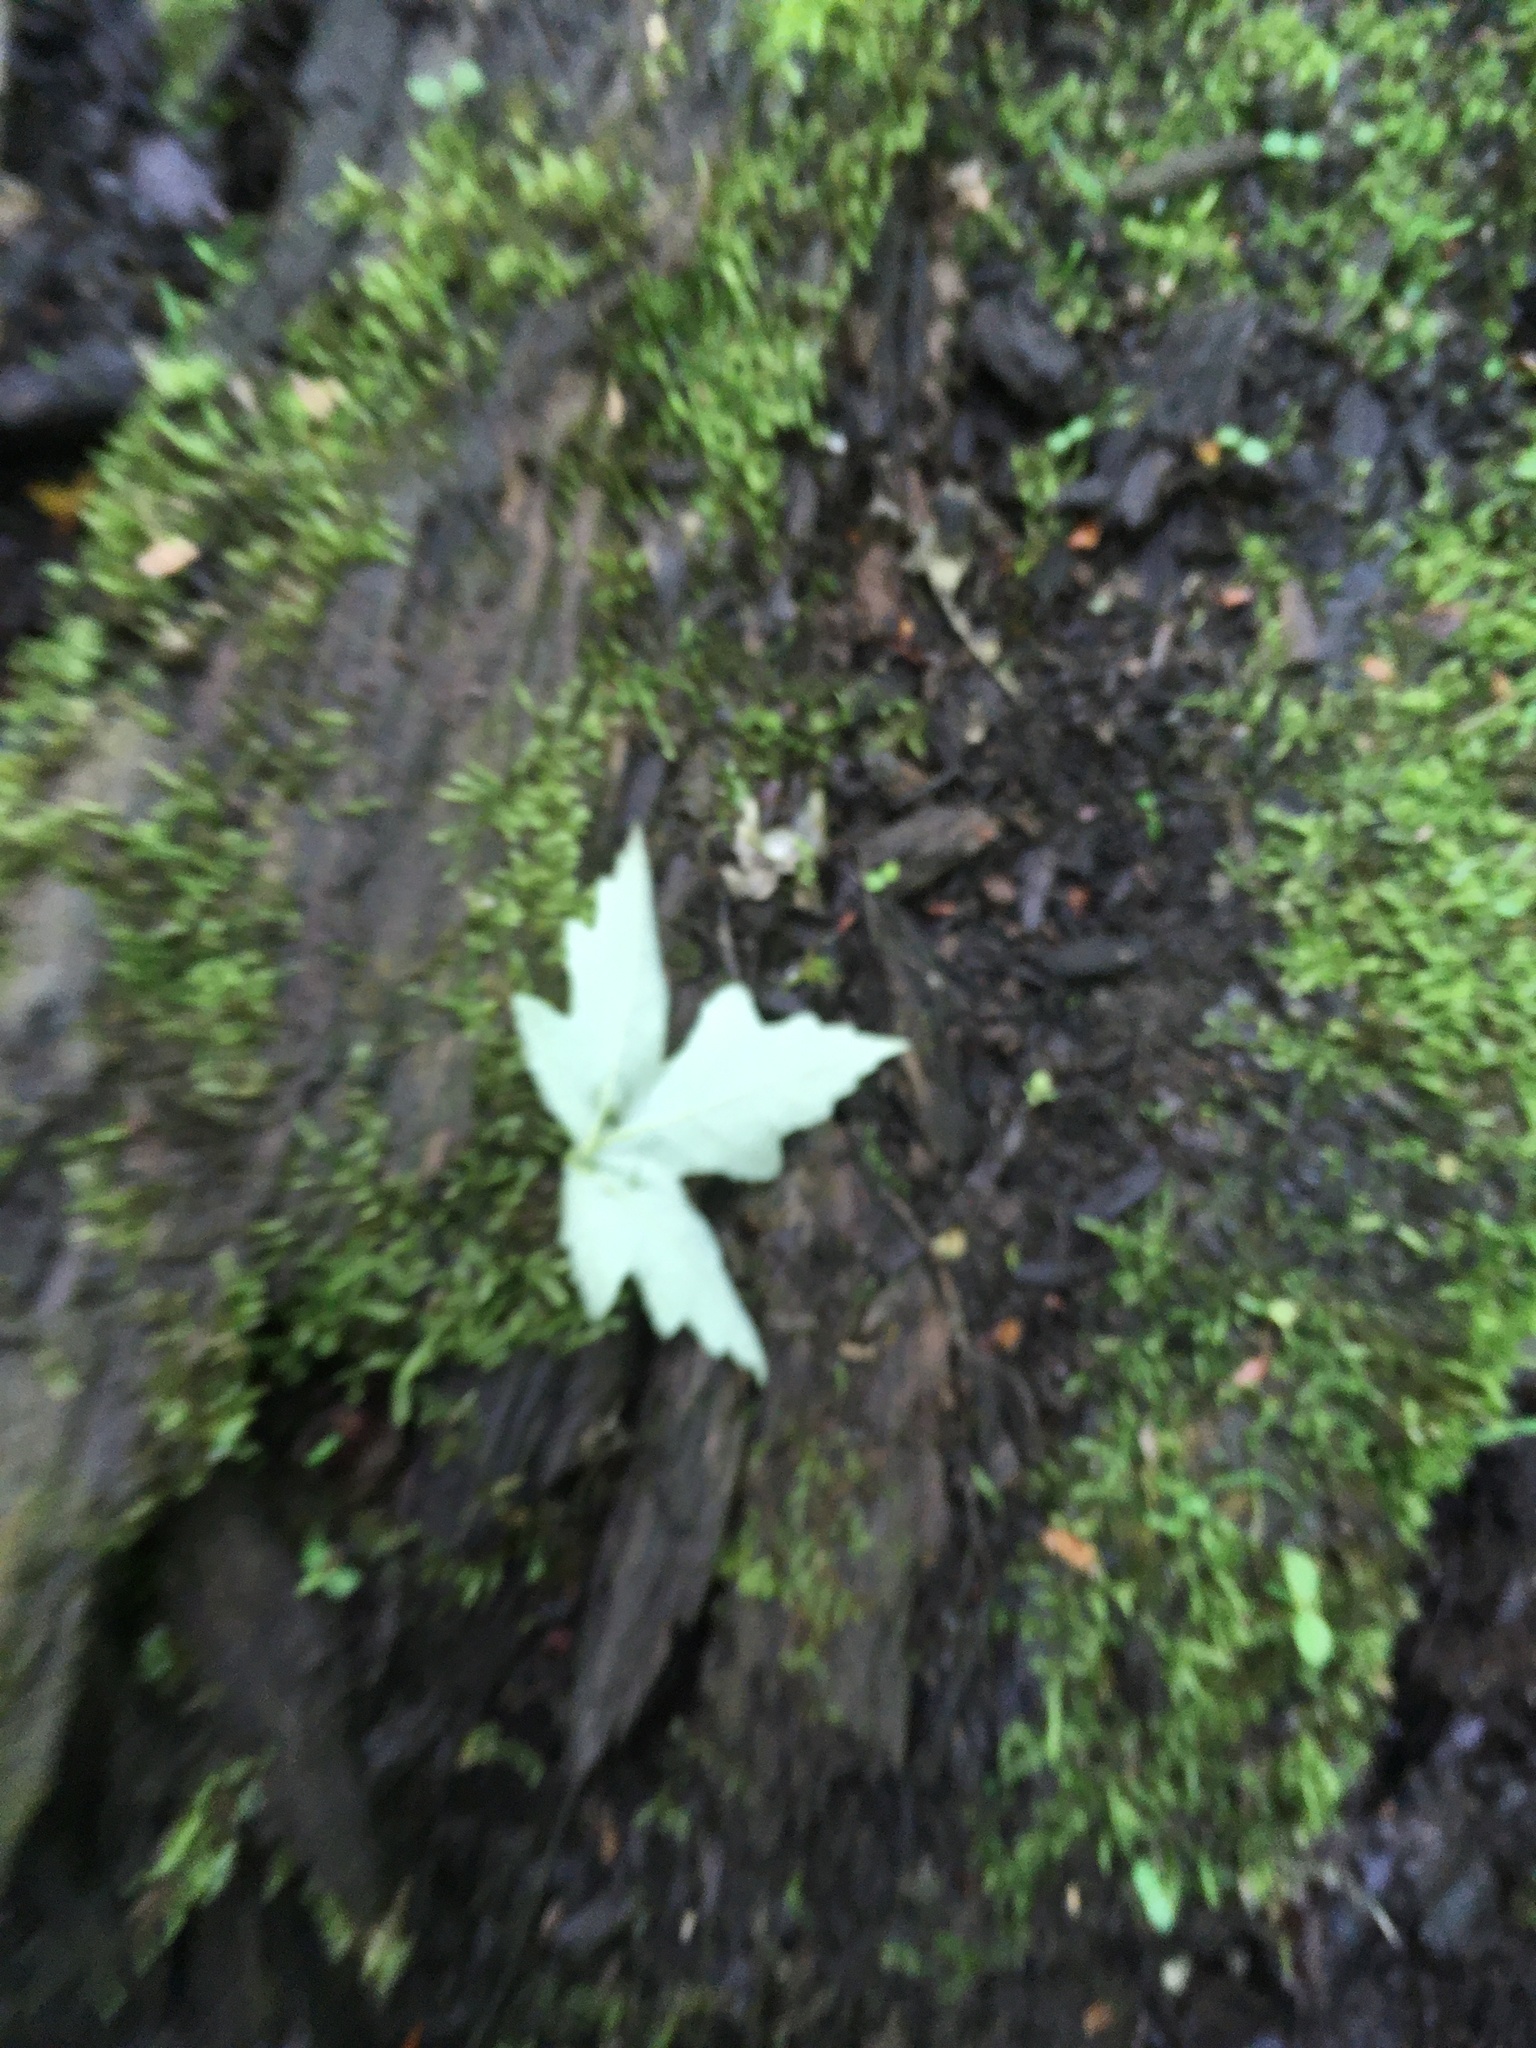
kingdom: Plantae
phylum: Tracheophyta
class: Magnoliopsida
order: Sapindales
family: Sapindaceae
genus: Acer
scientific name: Acer saccharinum
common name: Silver maple
